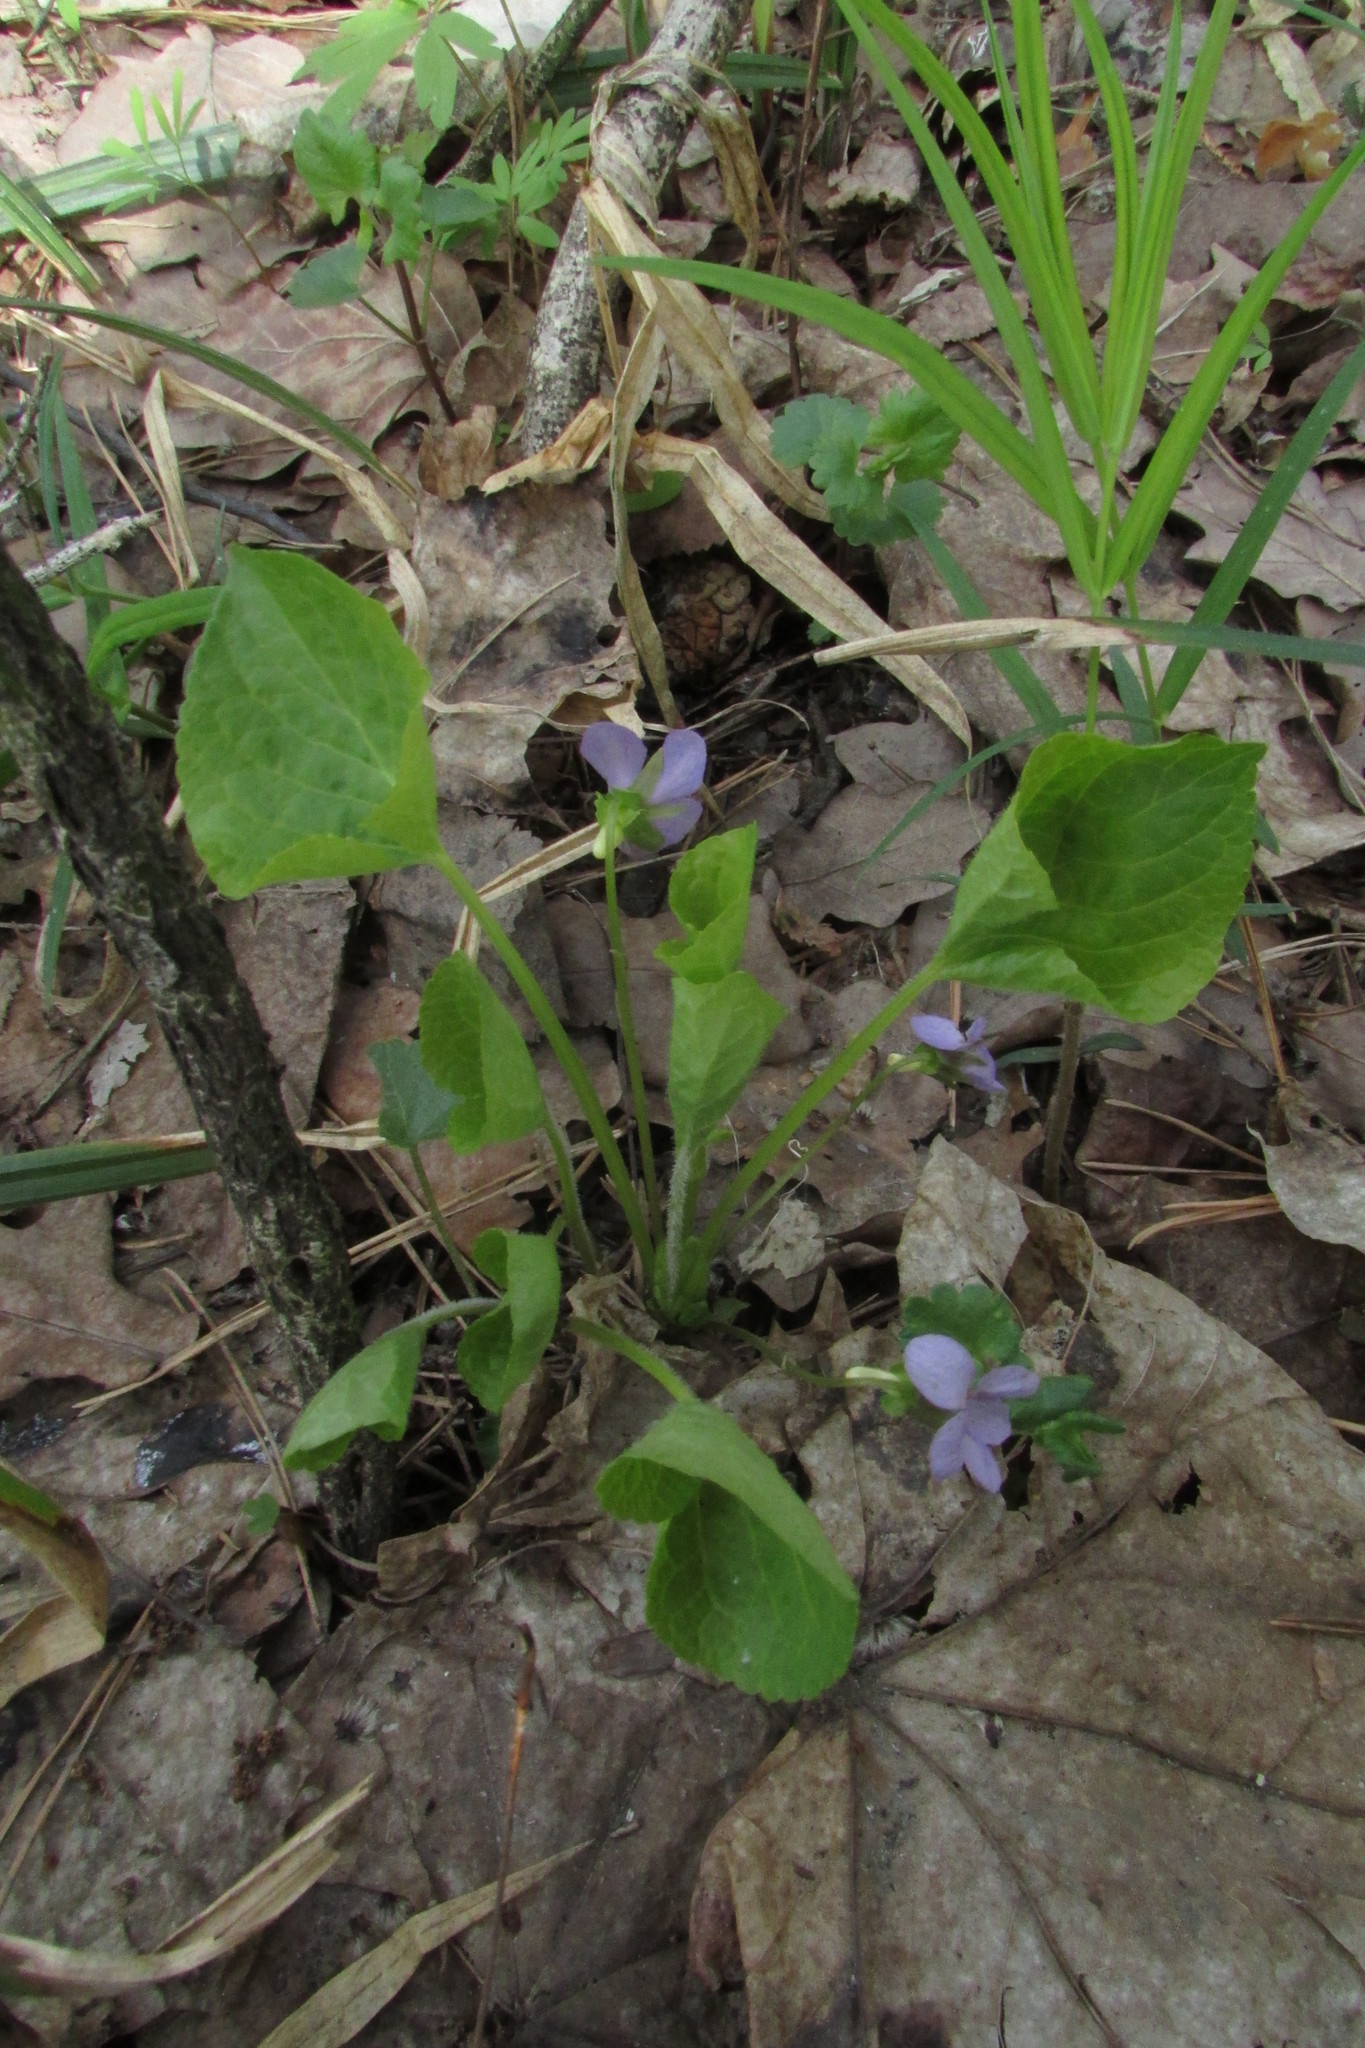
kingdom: Plantae
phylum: Tracheophyta
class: Magnoliopsida
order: Malpighiales
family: Violaceae
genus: Viola
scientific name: Viola mirabilis
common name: Wonder violet
